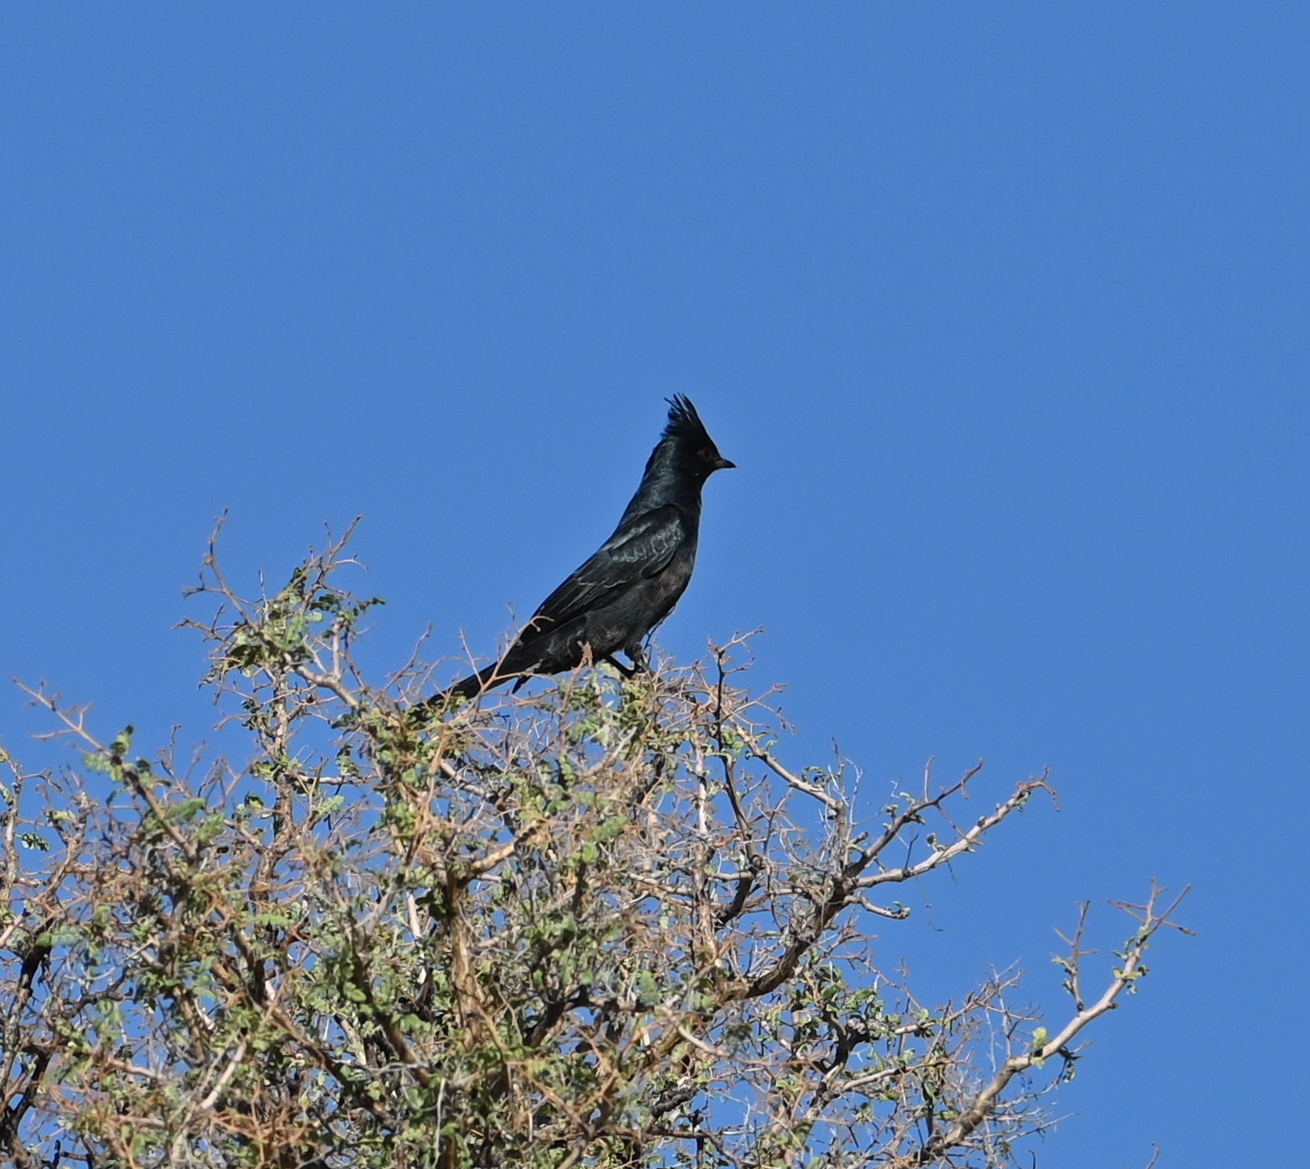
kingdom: Animalia
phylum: Chordata
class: Aves
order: Passeriformes
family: Ptilogonatidae
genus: Phainopepla
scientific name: Phainopepla nitens
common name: Phainopepla
